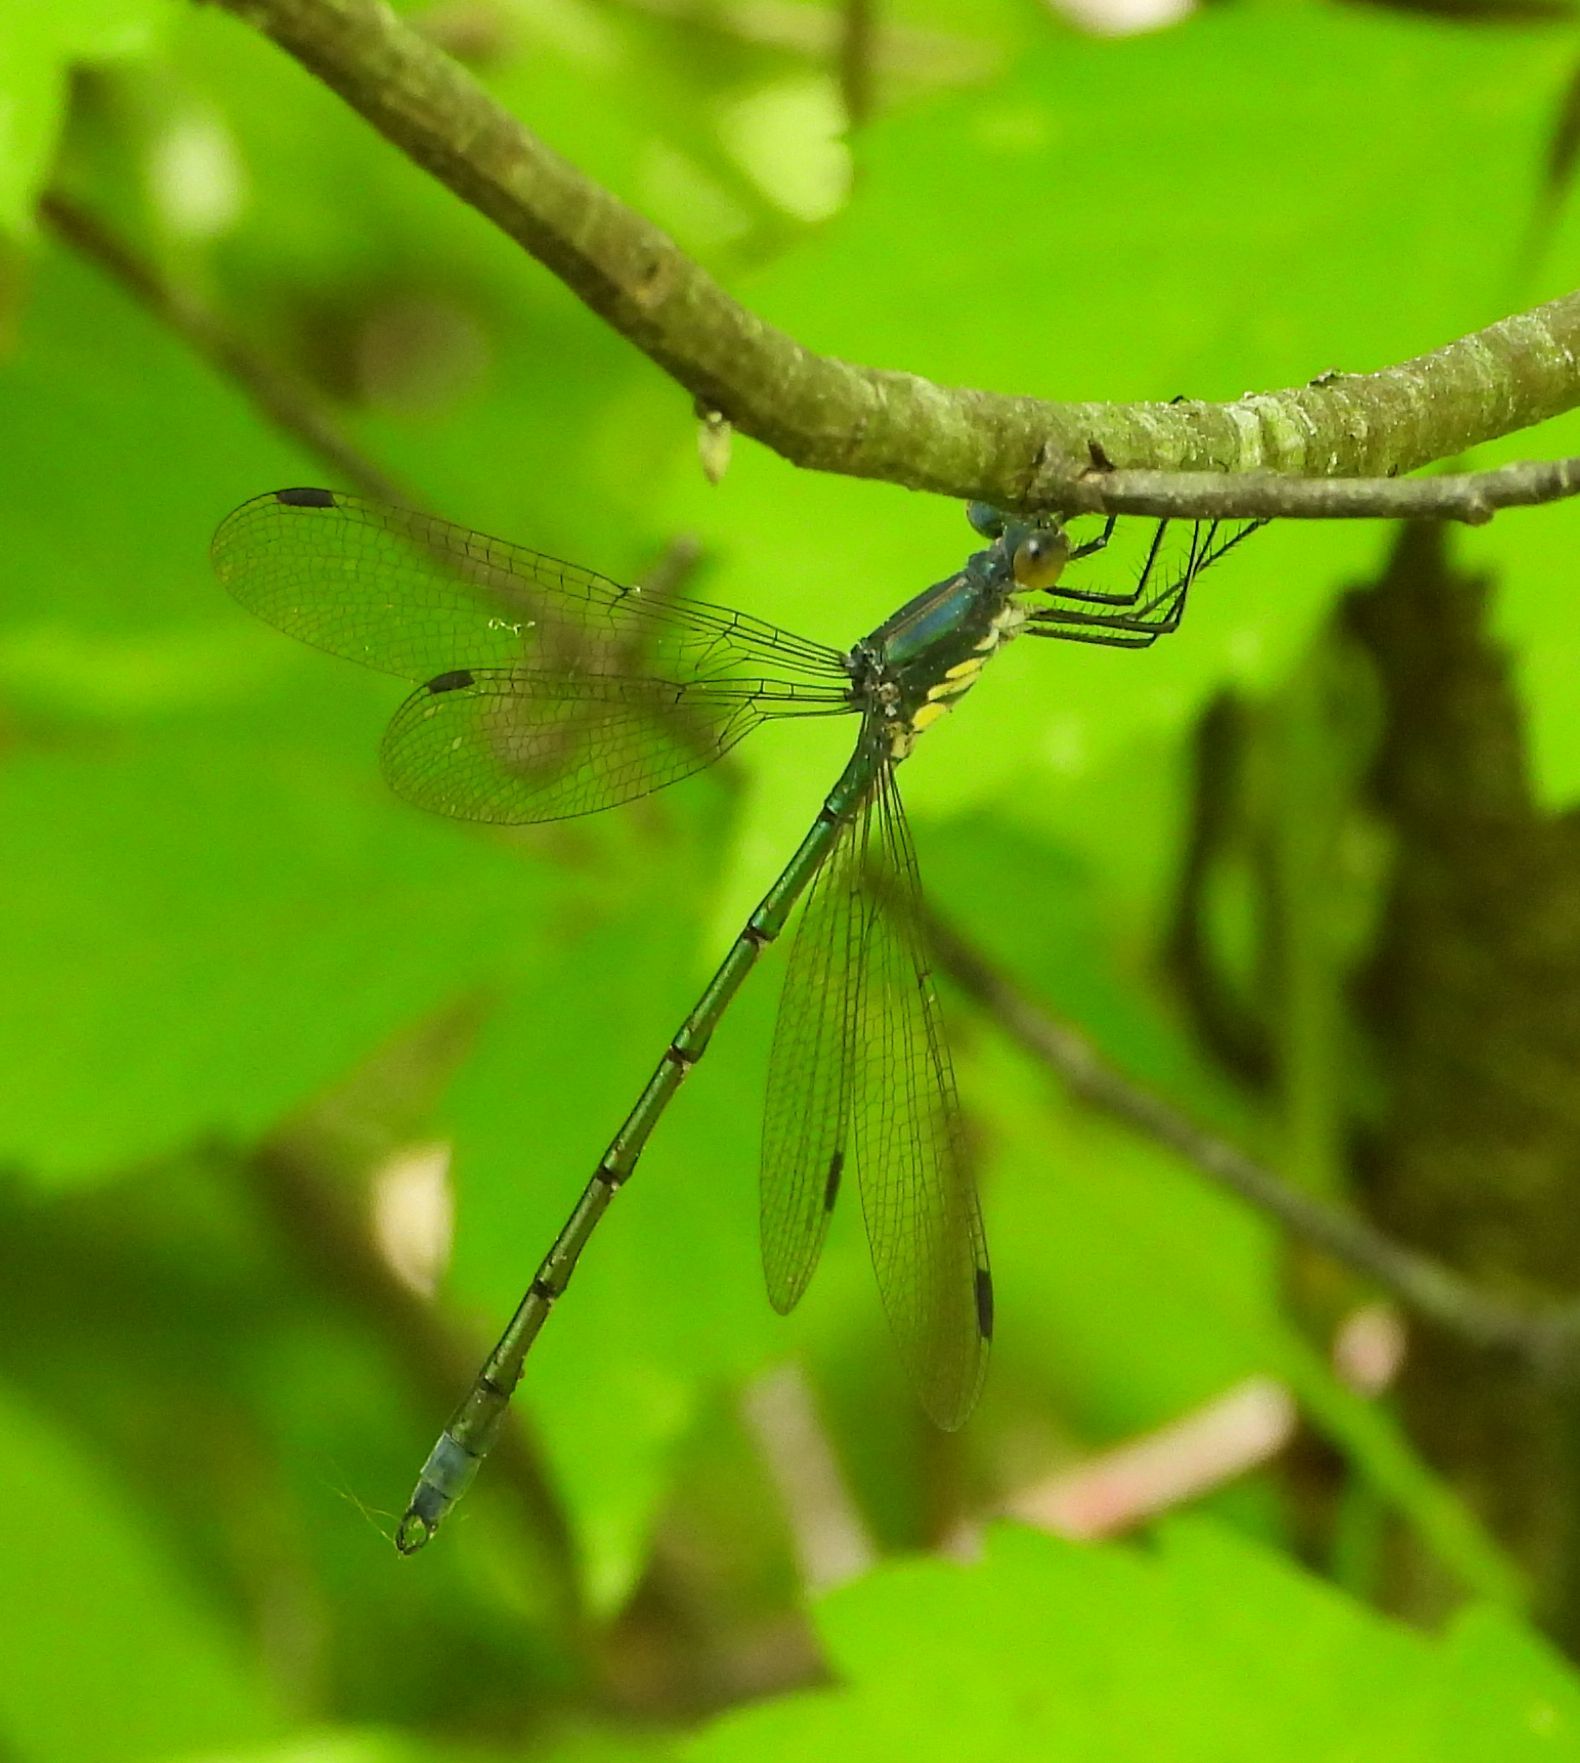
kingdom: Animalia
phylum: Arthropoda
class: Insecta
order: Odonata
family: Lestidae
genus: Lestes
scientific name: Lestes eurinus
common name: Amber-winged spreadwing
